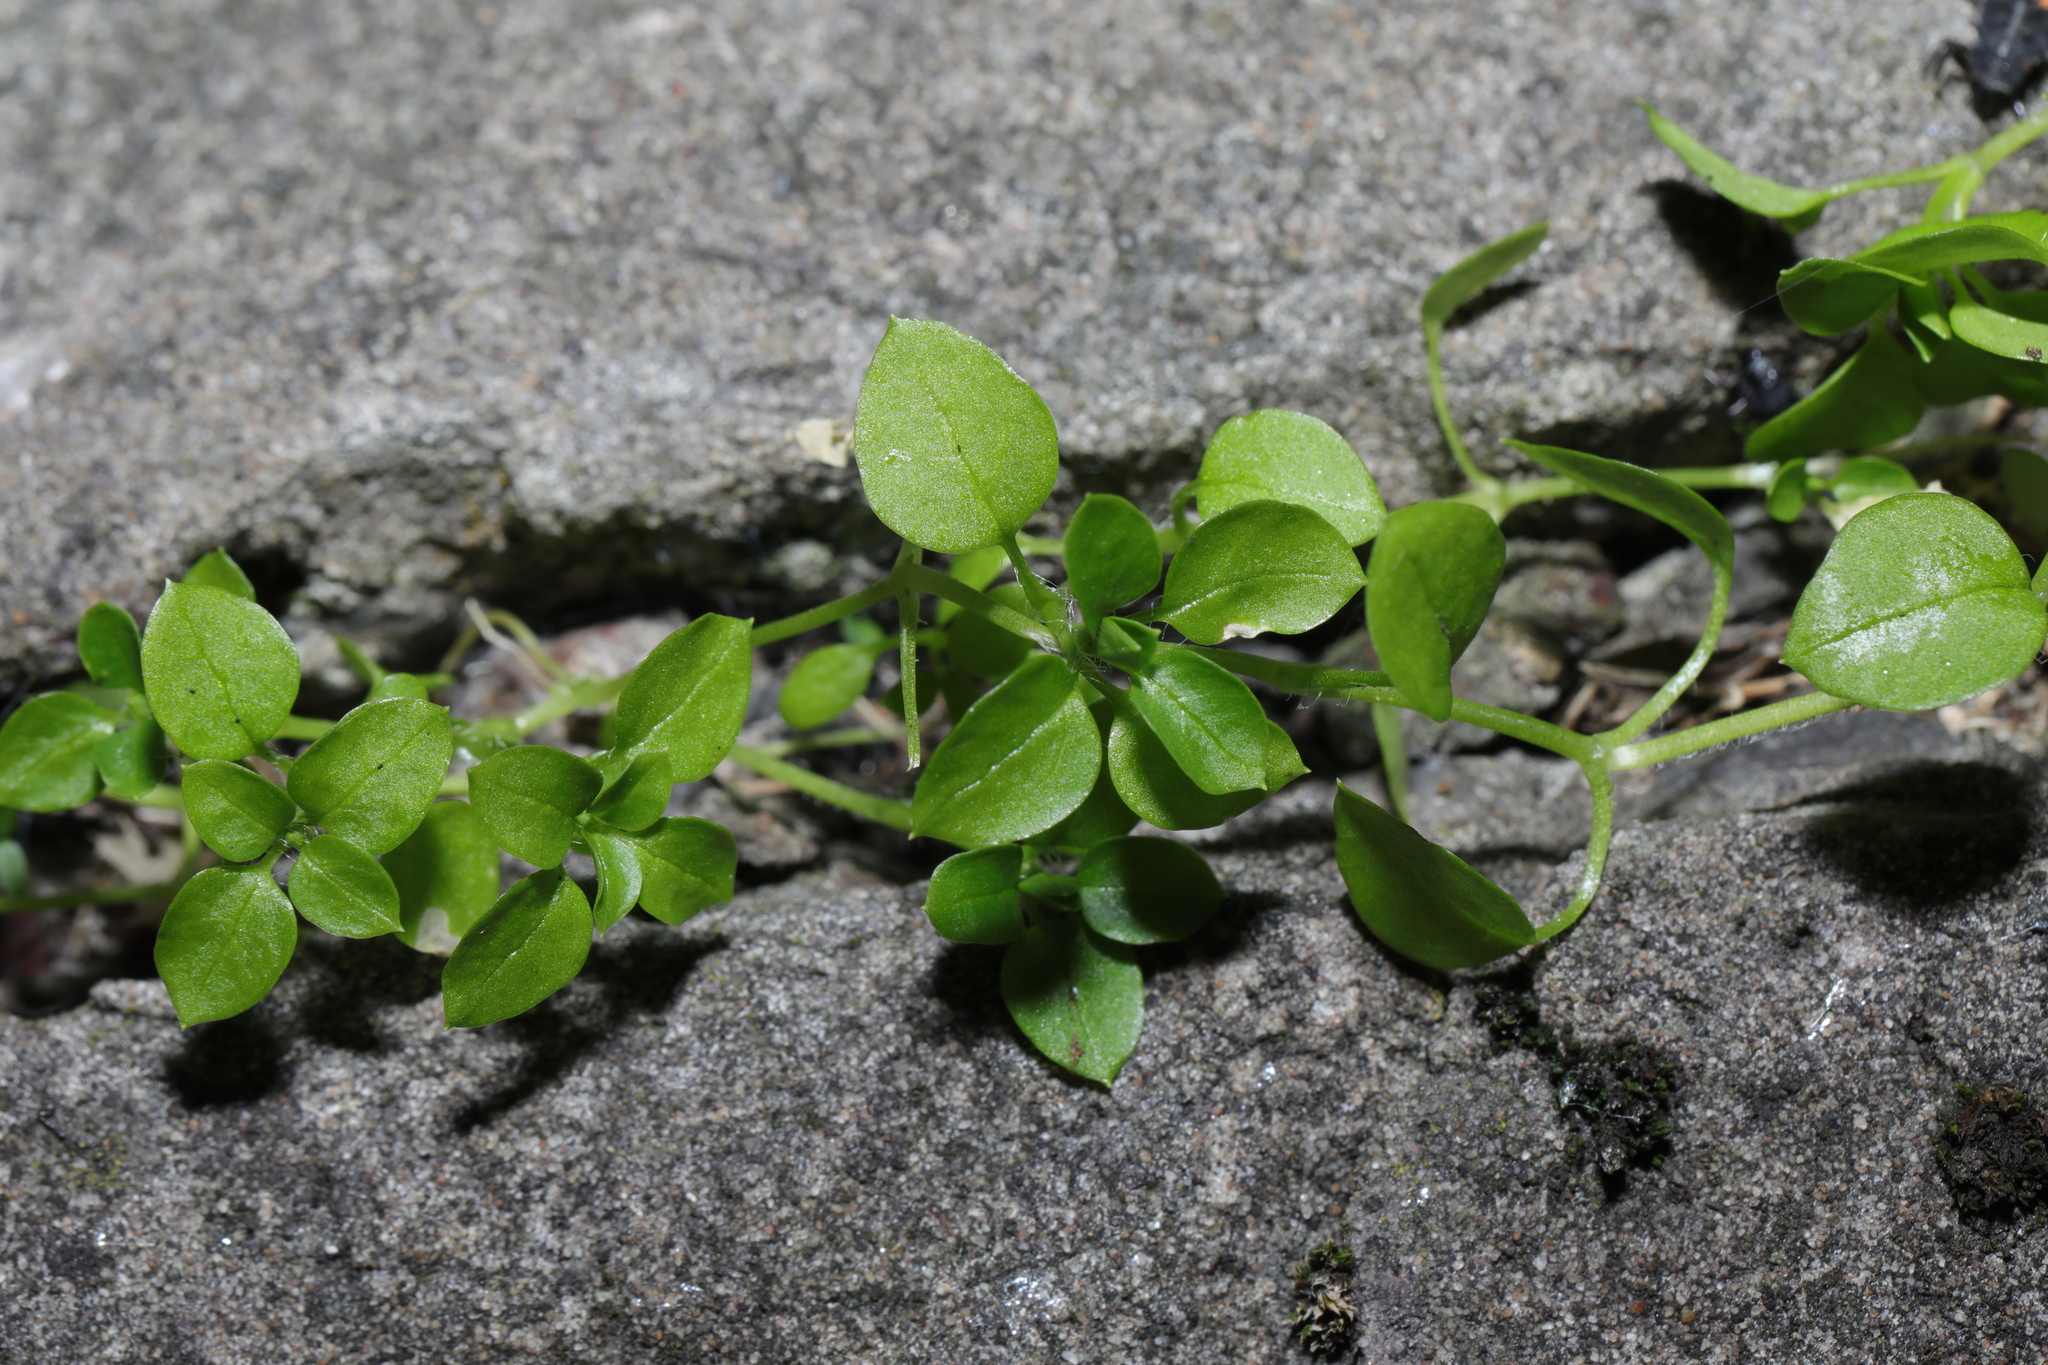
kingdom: Plantae
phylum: Tracheophyta
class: Magnoliopsida
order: Caryophyllales
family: Caryophyllaceae
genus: Stellaria
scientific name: Stellaria media
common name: Common chickweed
